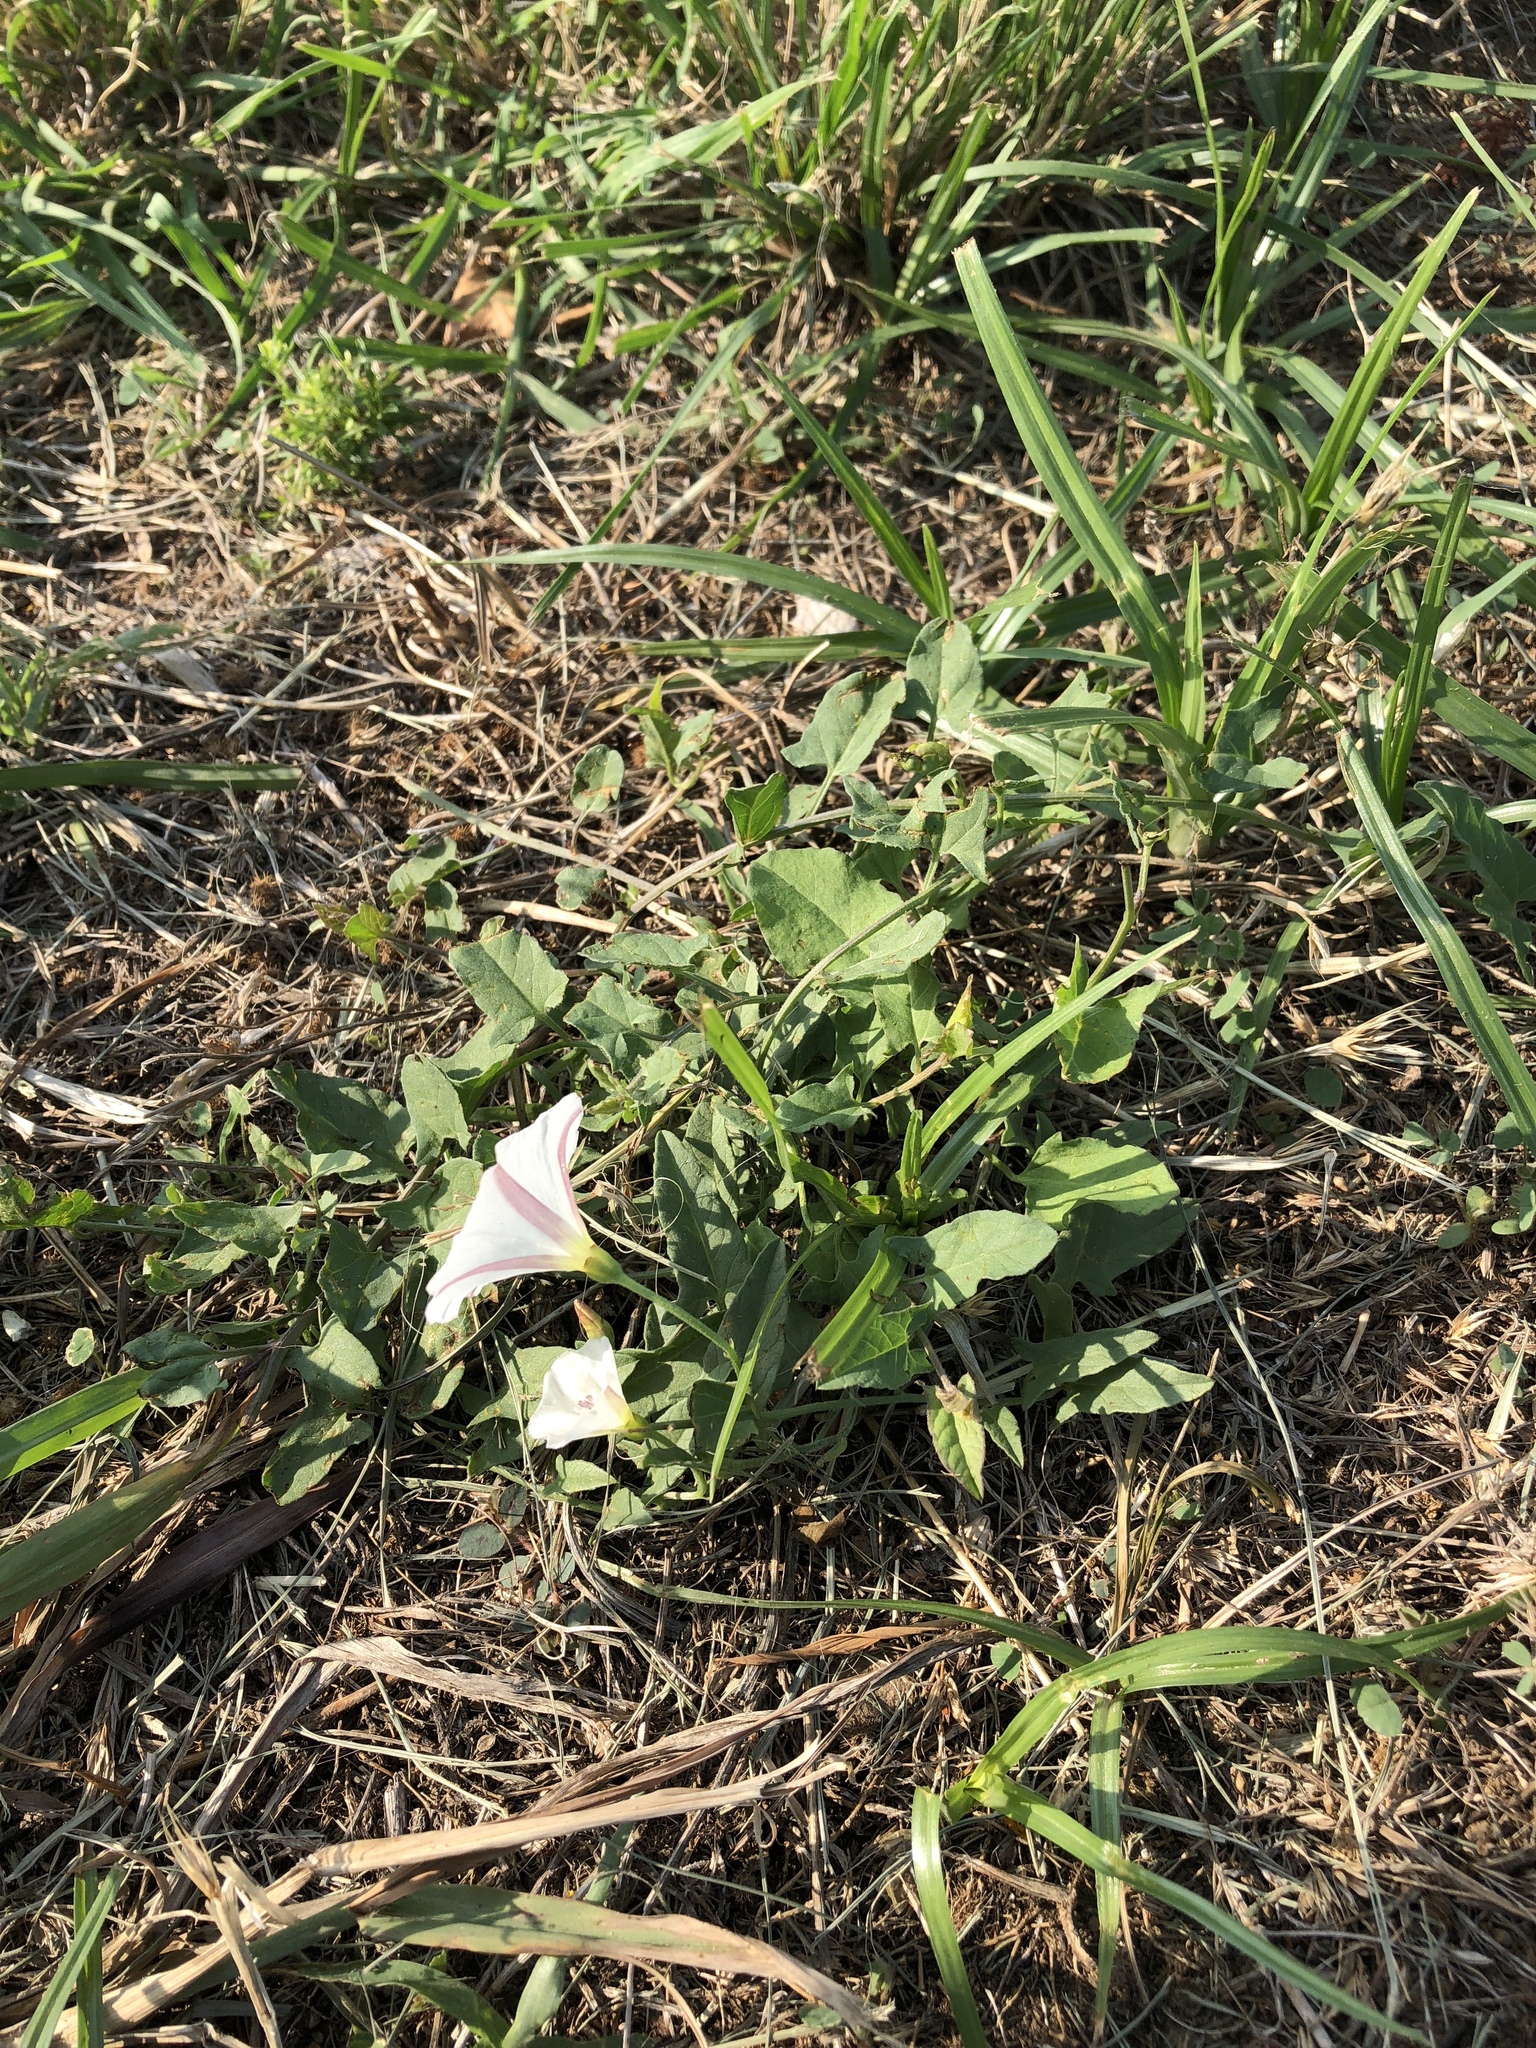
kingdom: Plantae
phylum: Tracheophyta
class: Magnoliopsida
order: Solanales
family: Convolvulaceae
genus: Convolvulus
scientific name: Convolvulus arvensis
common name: Field bindweed
